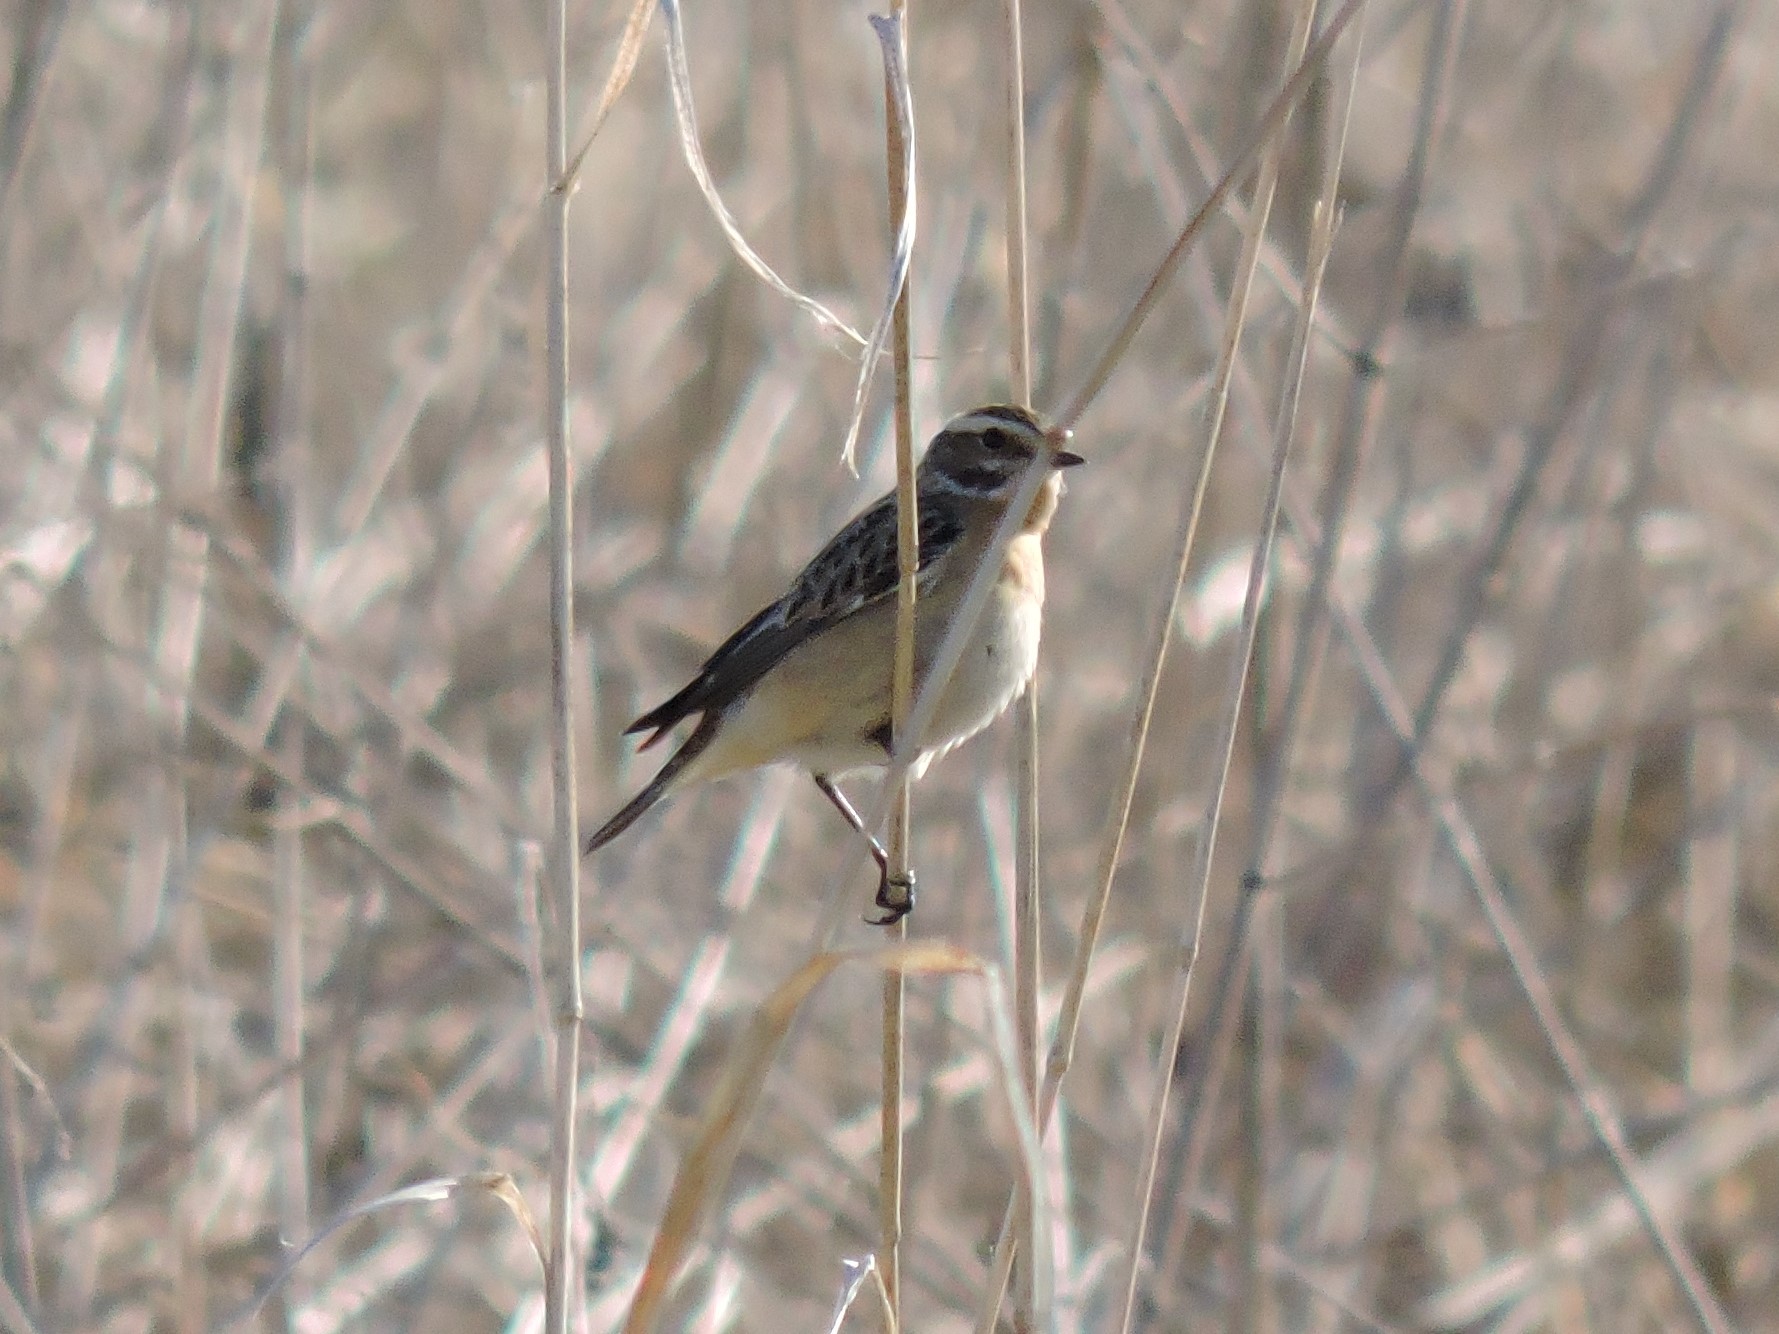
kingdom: Animalia
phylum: Chordata
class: Aves
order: Passeriformes
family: Muscicapidae
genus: Saxicola
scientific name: Saxicola rubetra
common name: Whinchat
